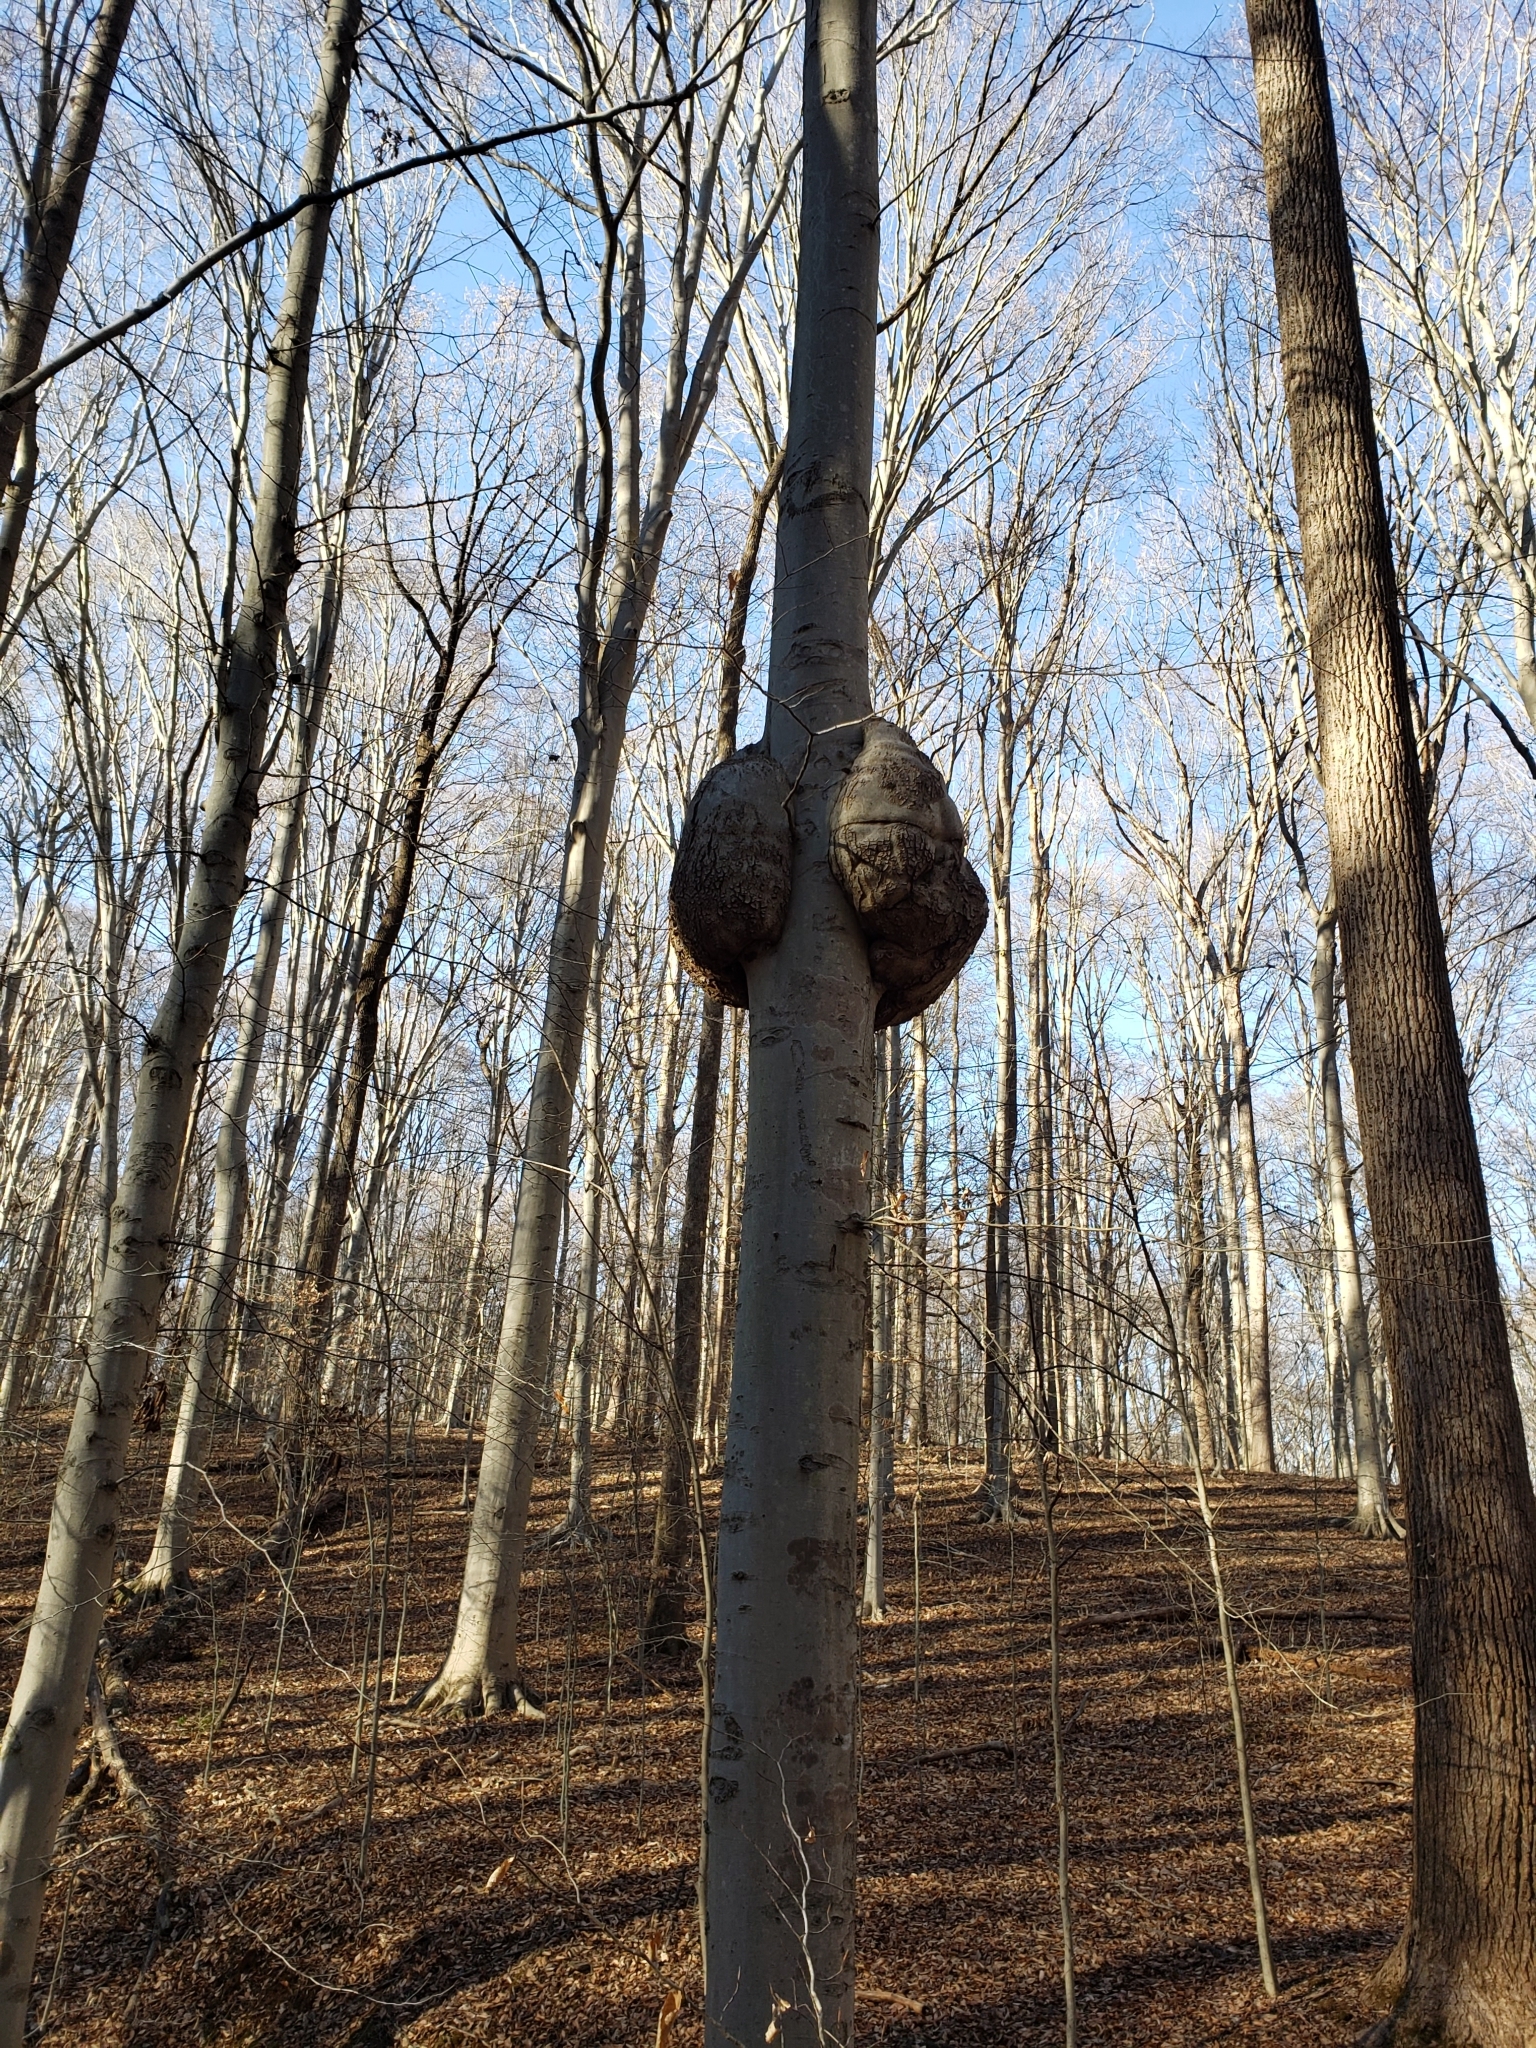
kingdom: Bacteria
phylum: Proteobacteria
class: Alphaproteobacteria
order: Rhizobiales
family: Rhizobiaceae
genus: Rhizobium
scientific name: Rhizobium Agrobacterium radiobacter
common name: Bacterial crown gall
